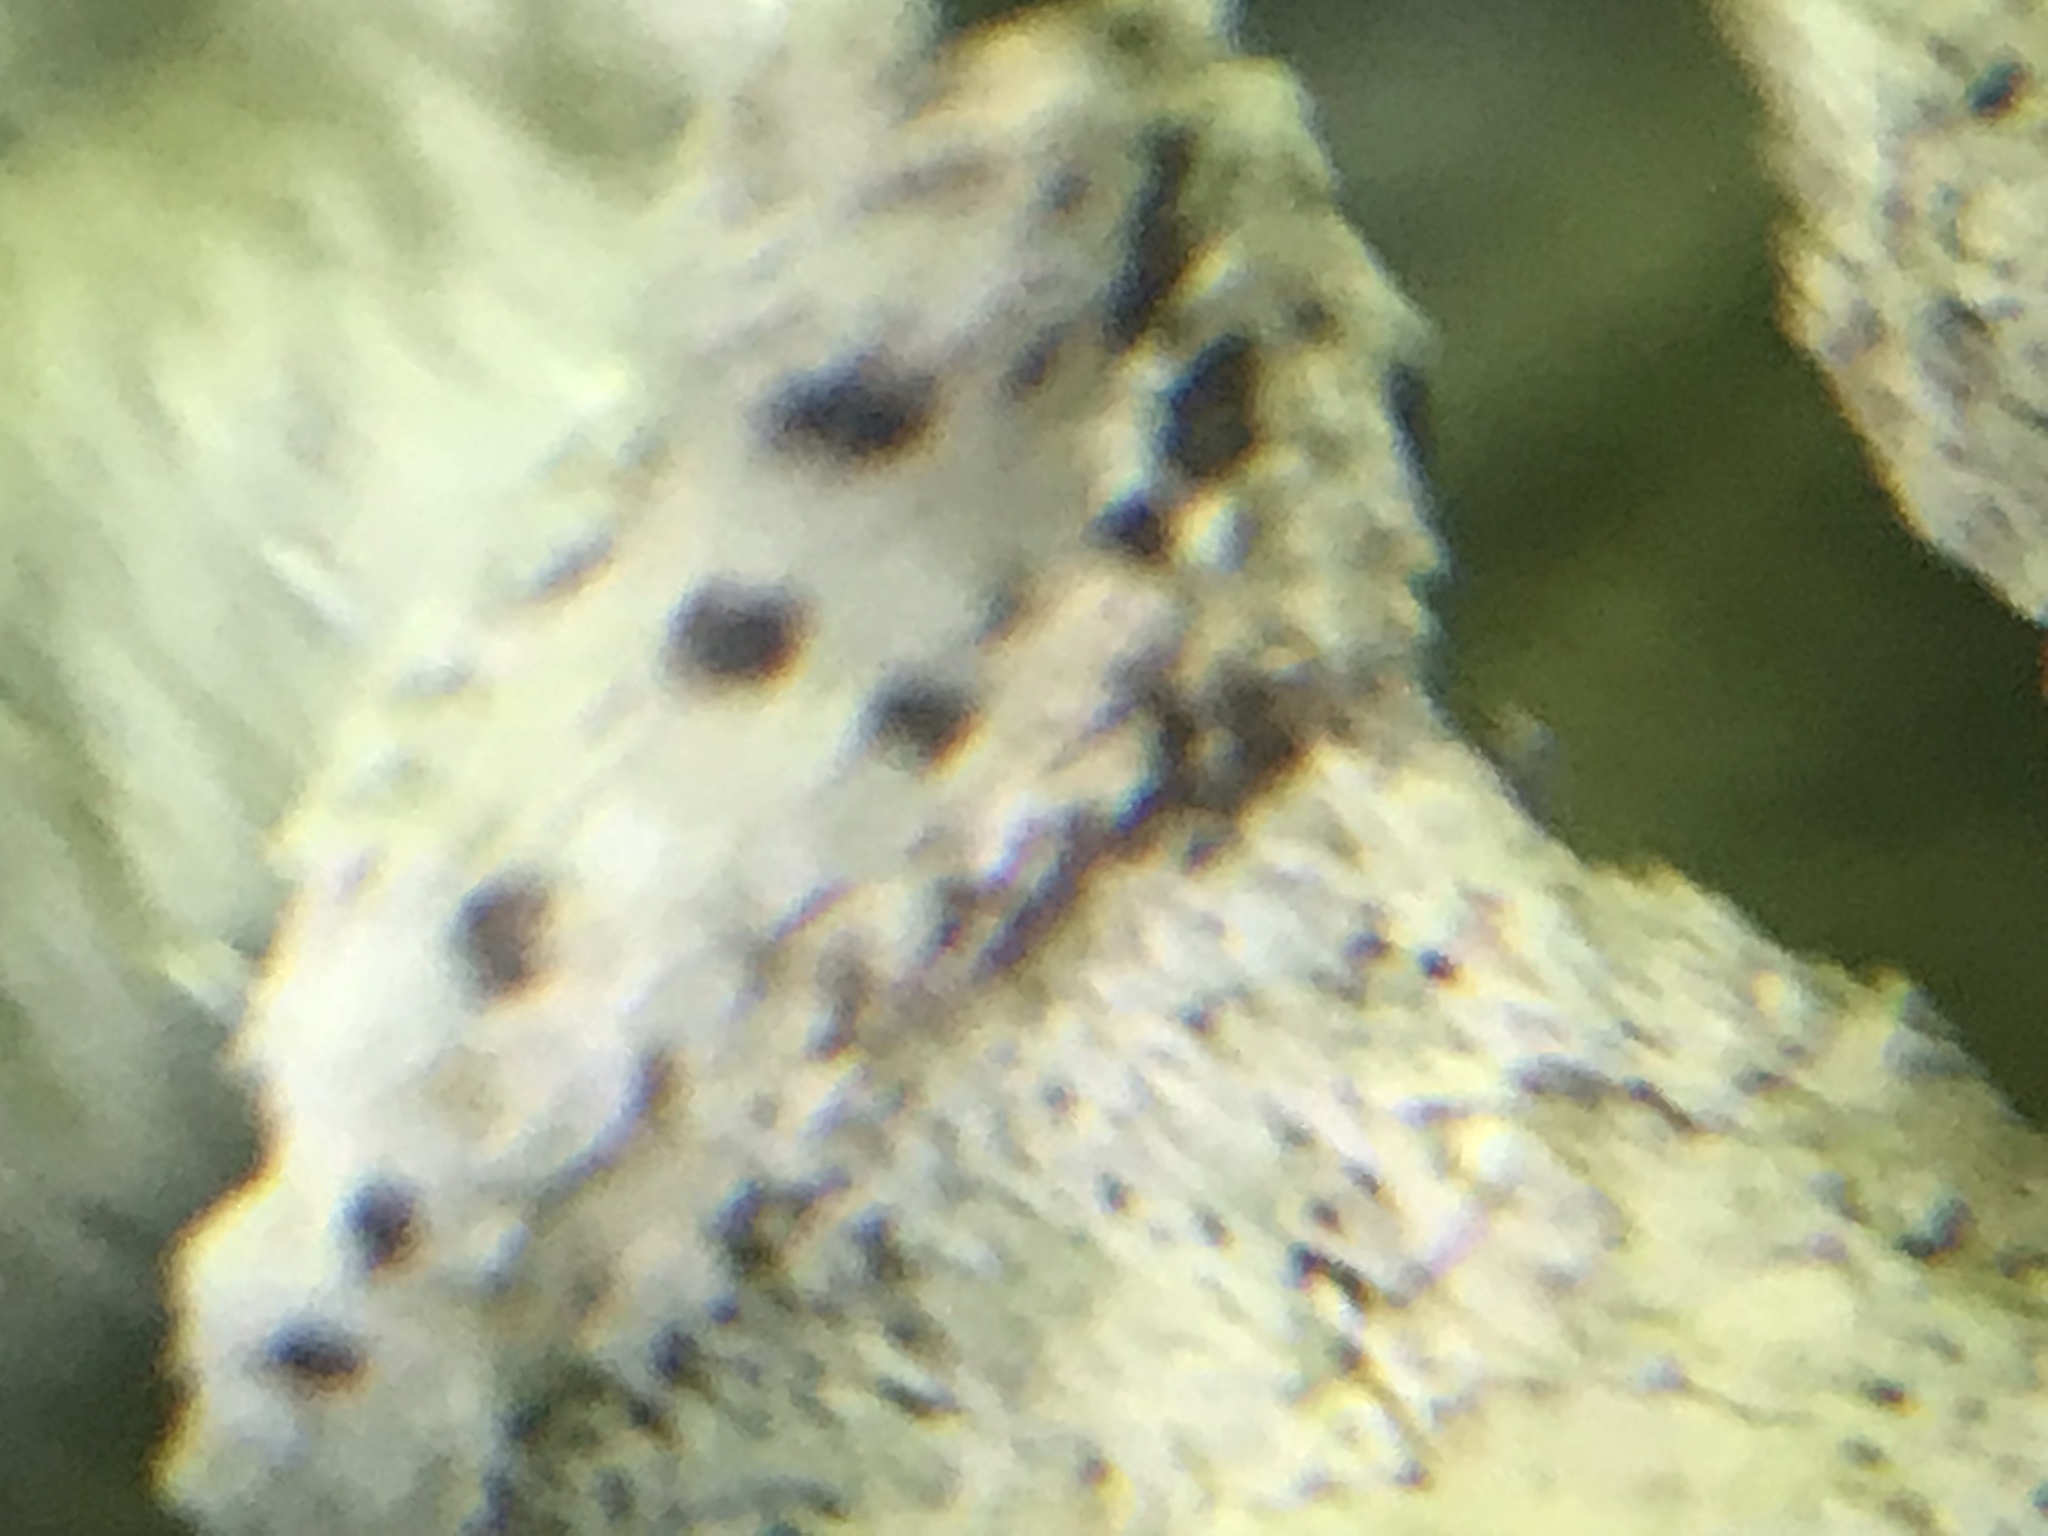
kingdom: Fungi
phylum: Ascomycota
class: Lecanoromycetes
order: Lecanorales
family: Parmeliaceae
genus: Flavoparmelia
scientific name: Flavoparmelia caperata
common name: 40-mile per hour lichen
